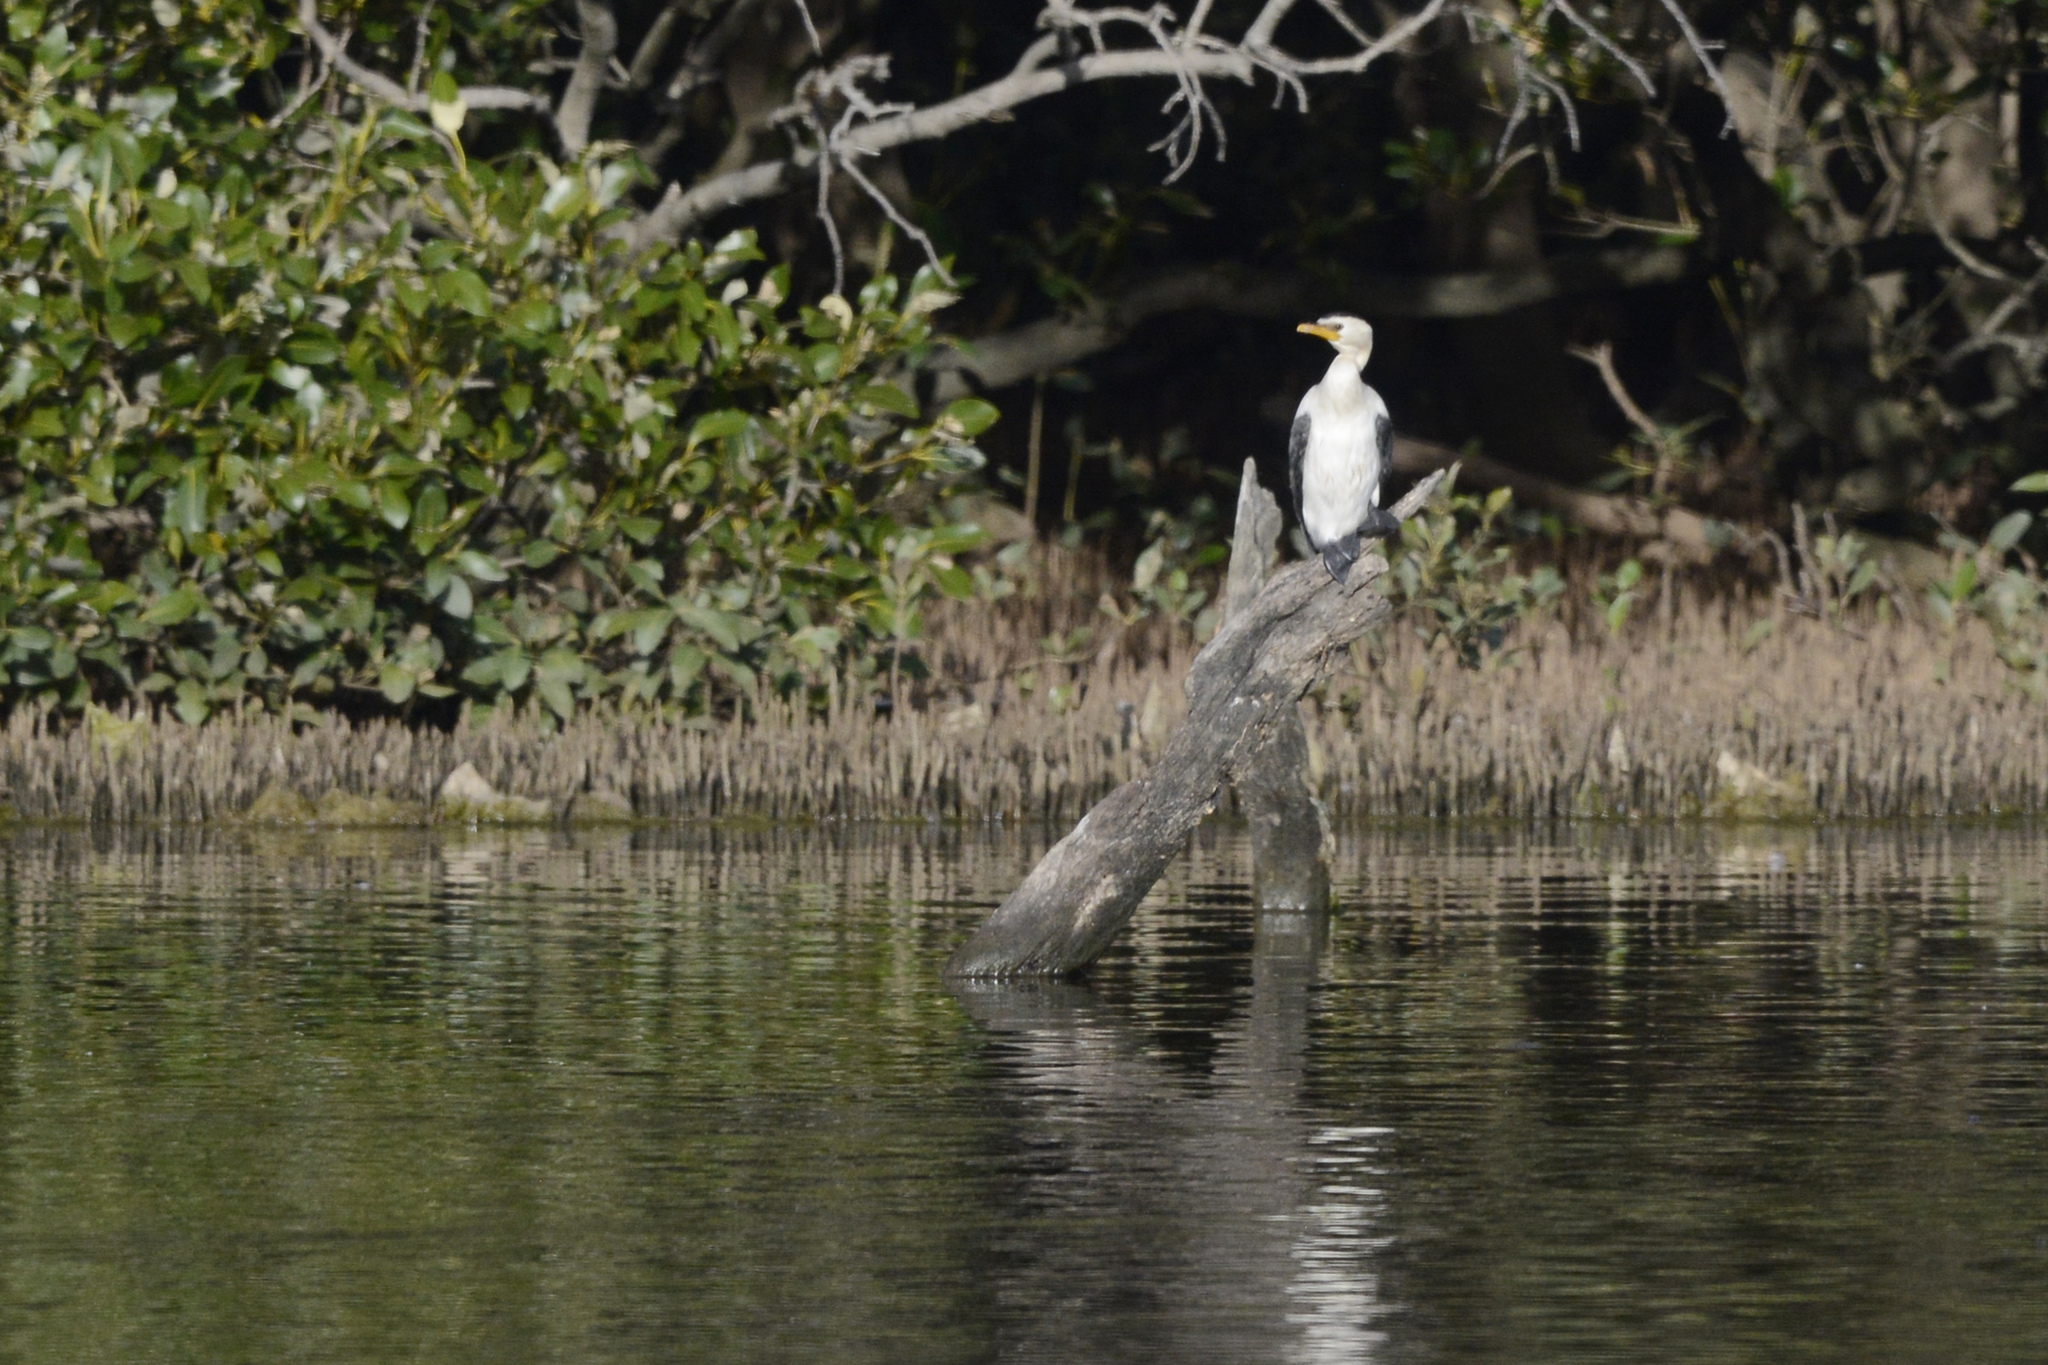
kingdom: Animalia
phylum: Chordata
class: Aves
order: Suliformes
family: Phalacrocoracidae
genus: Microcarbo
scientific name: Microcarbo melanoleucos
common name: Little pied cormorant
